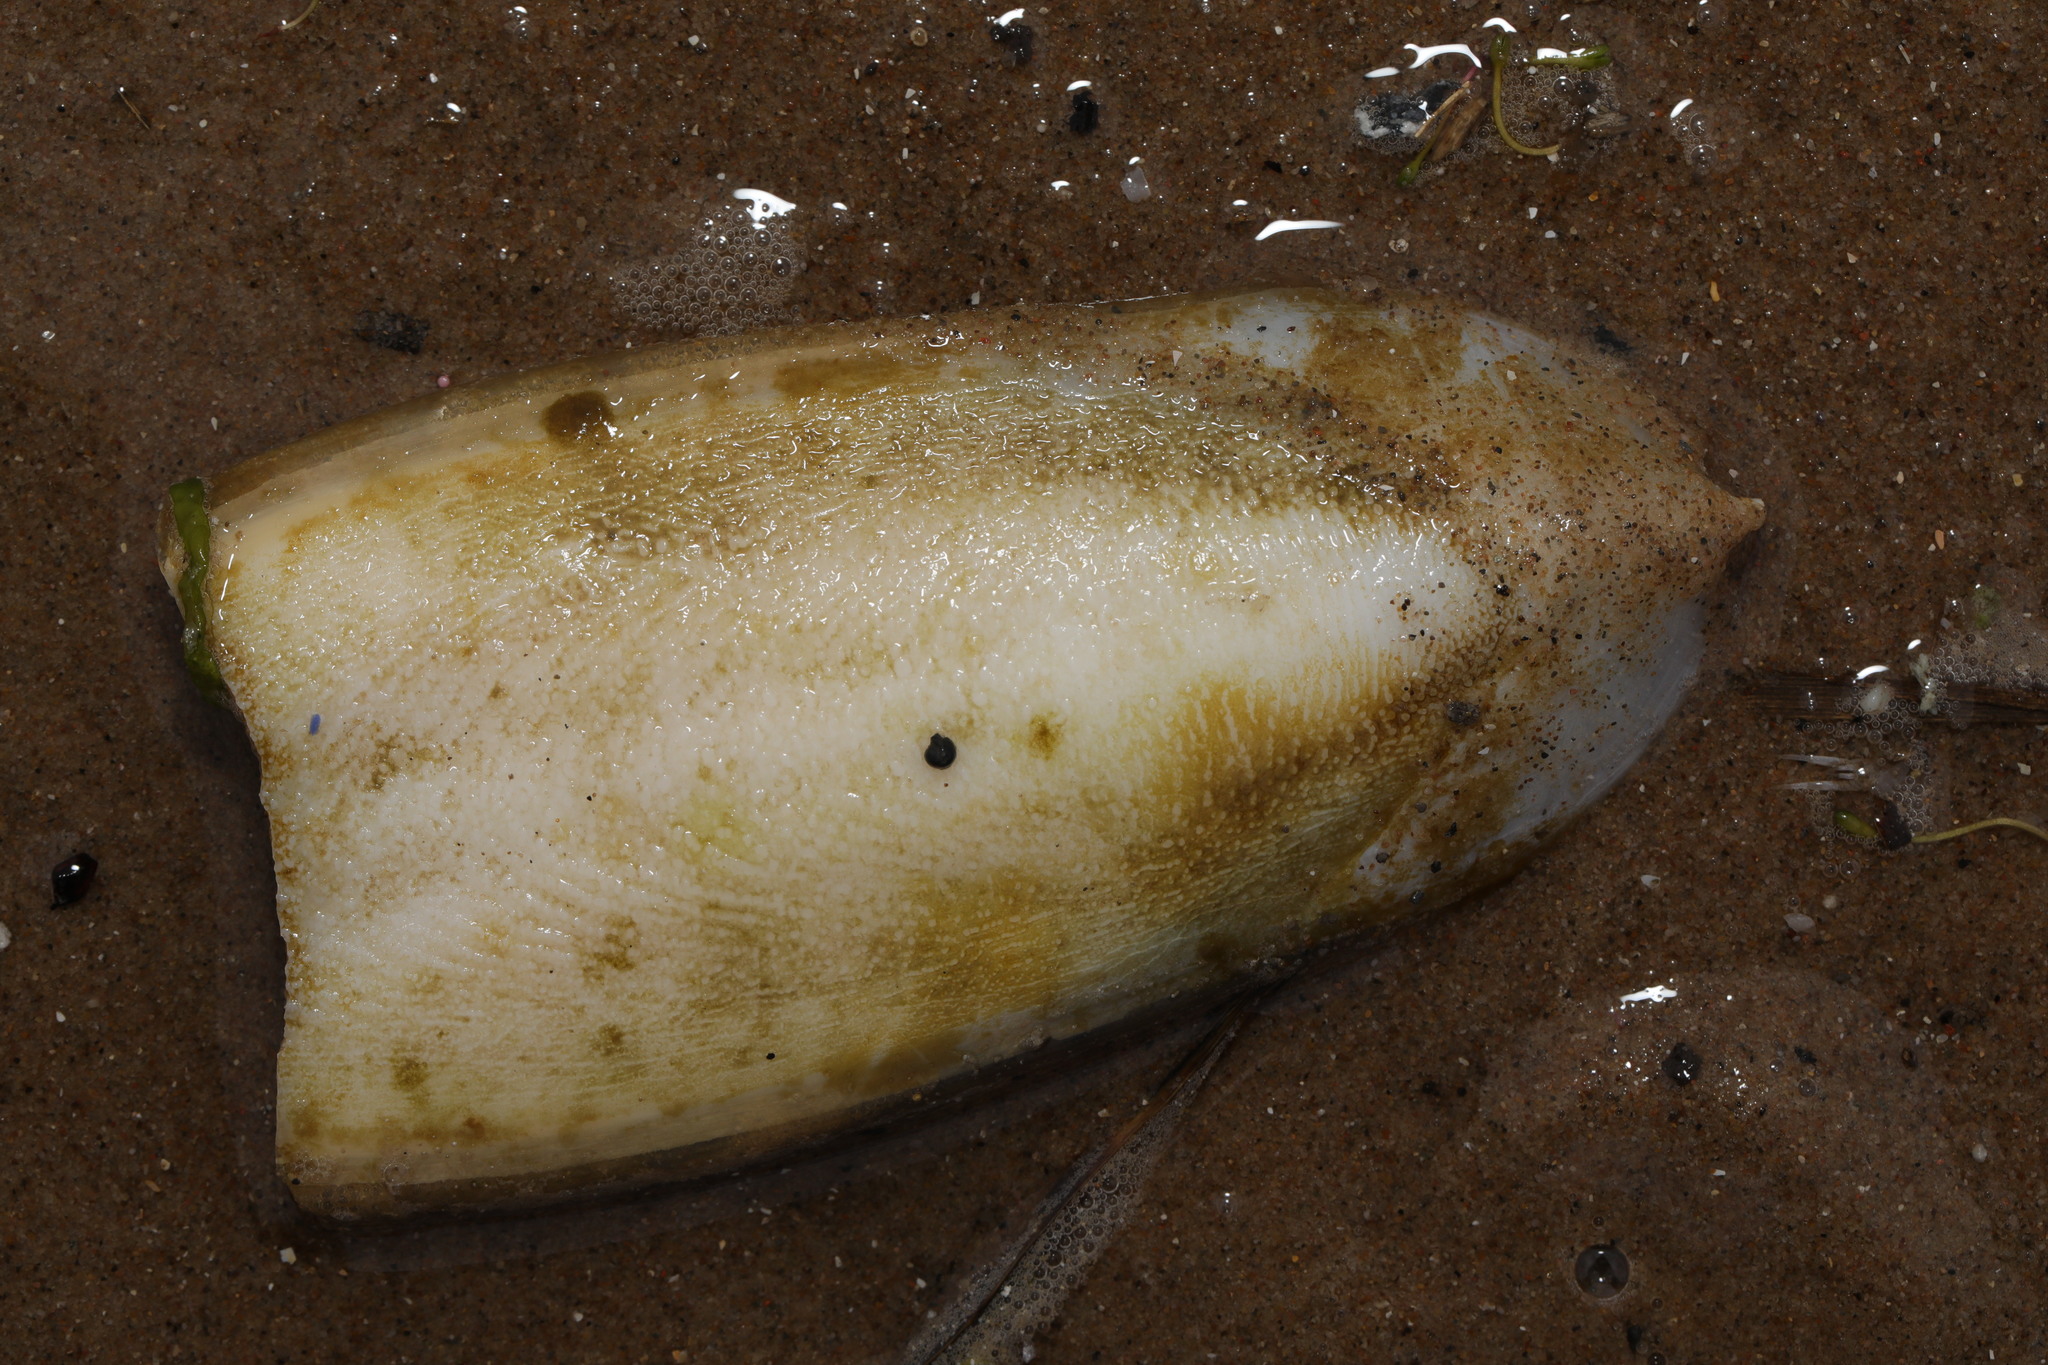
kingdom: Animalia
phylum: Mollusca
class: Cephalopoda
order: Sepiida
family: Sepiidae
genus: Sepia
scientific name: Sepia officinalis
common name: Common cuttlefish
